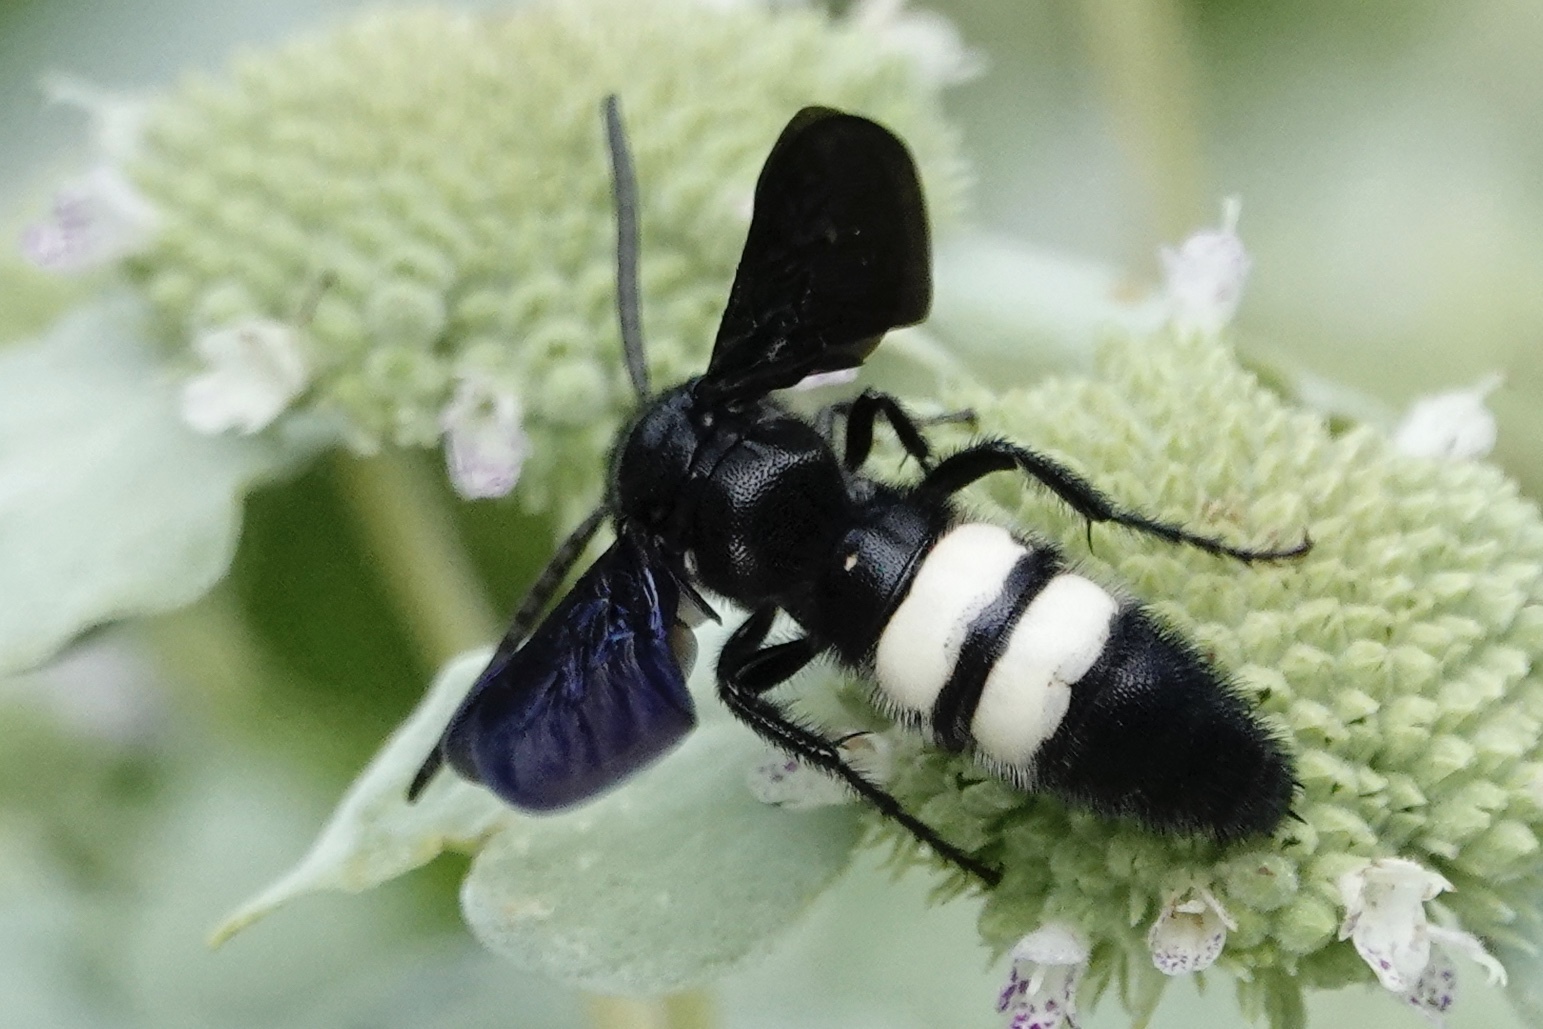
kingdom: Animalia
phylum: Arthropoda
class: Insecta
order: Hymenoptera
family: Scoliidae
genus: Scolia
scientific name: Scolia bicincta
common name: Double-banded scoliid wasp
